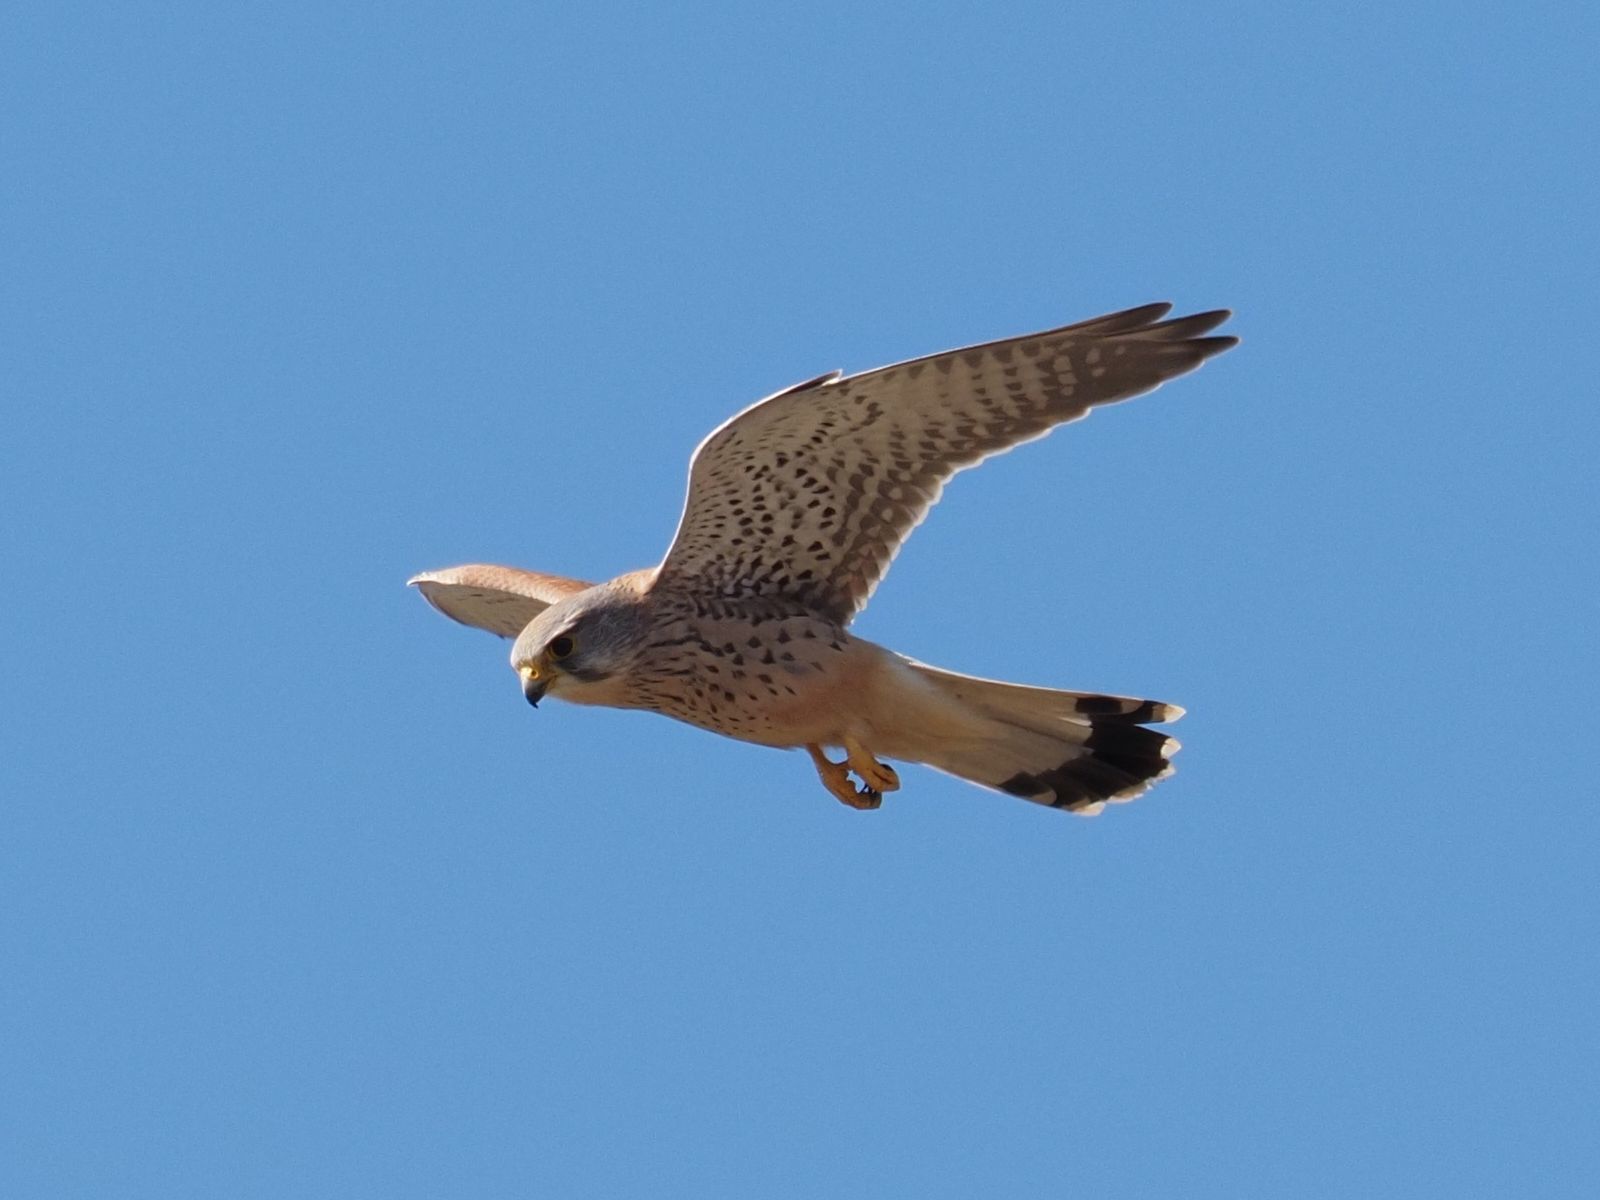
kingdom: Animalia
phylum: Chordata
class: Aves
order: Falconiformes
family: Falconidae
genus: Falco
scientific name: Falco tinnunculus
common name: Common kestrel
